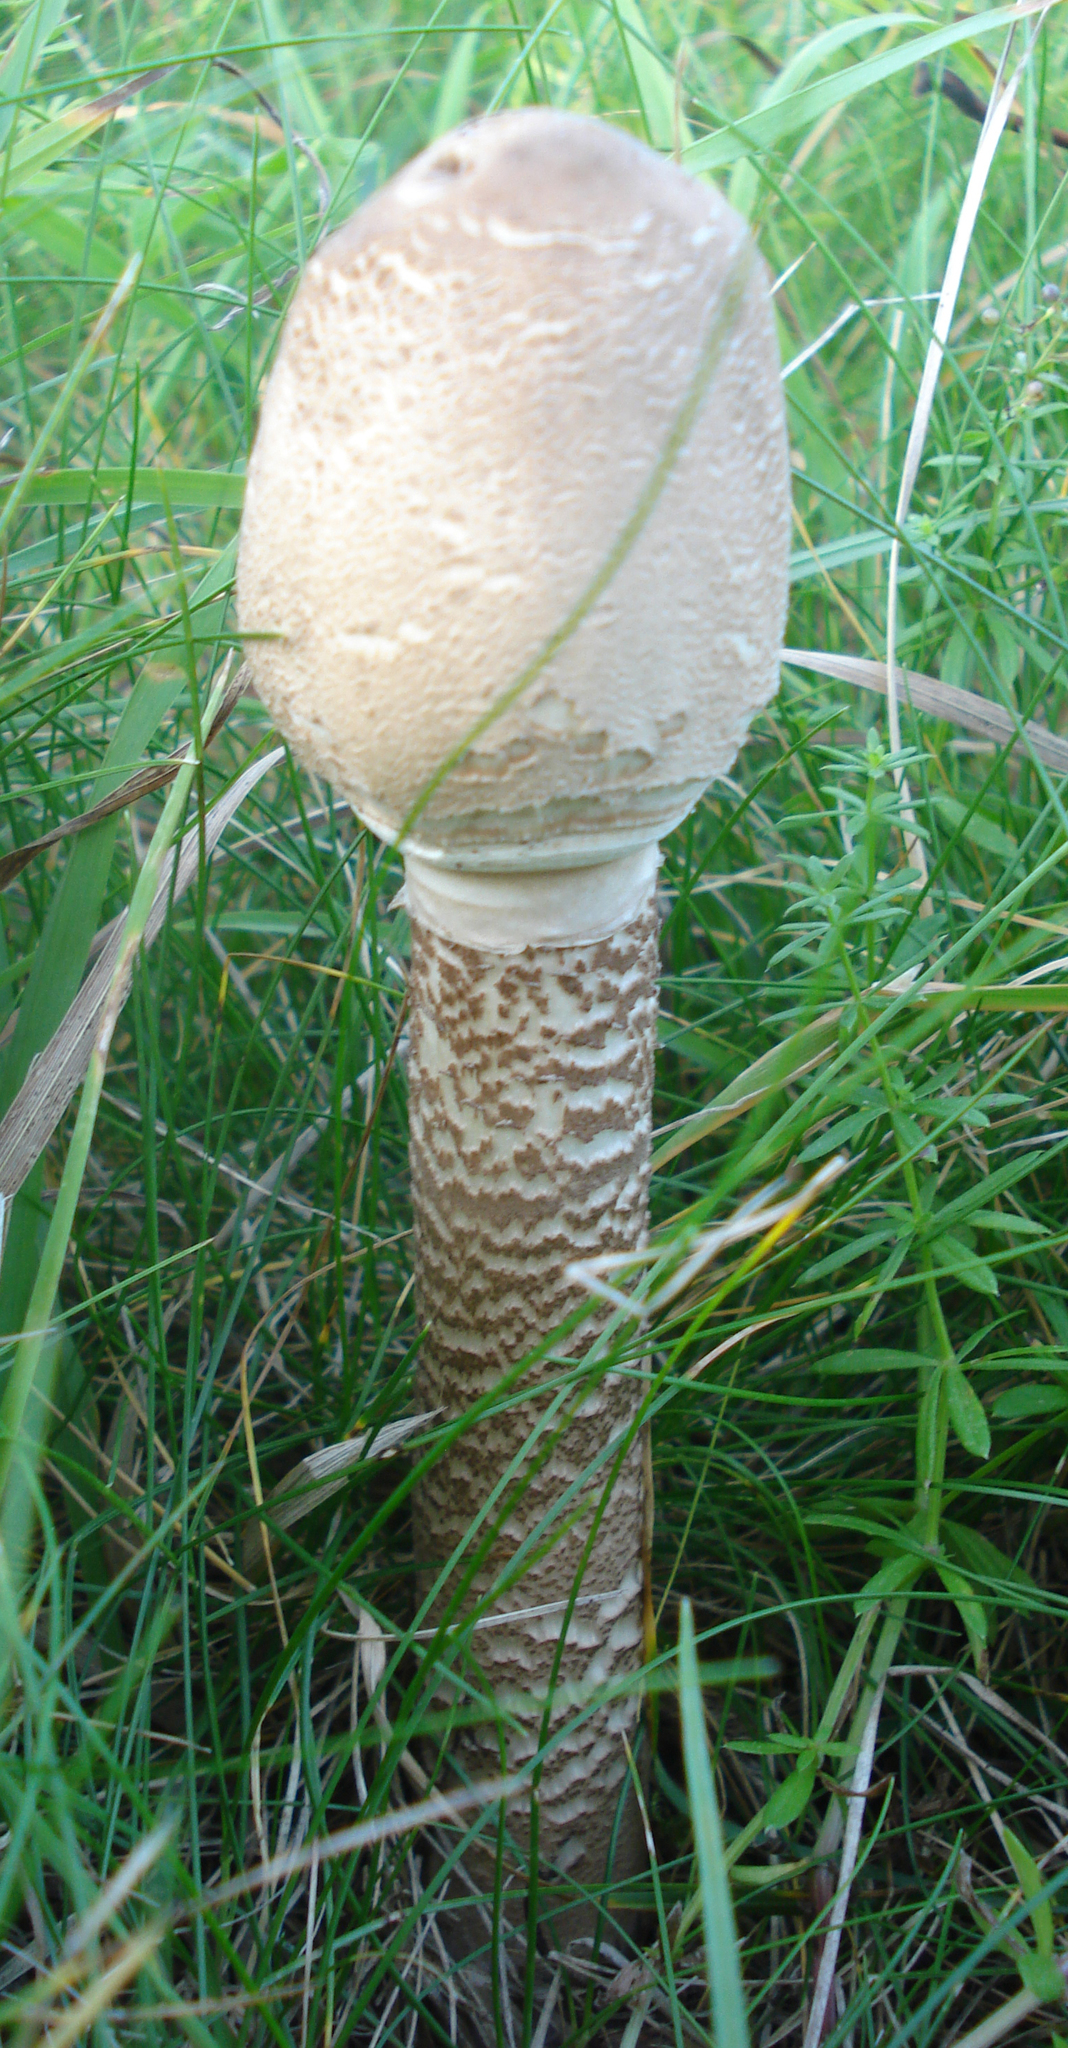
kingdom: Fungi
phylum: Basidiomycota
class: Agaricomycetes
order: Agaricales
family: Agaricaceae
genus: Macrolepiota
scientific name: Macrolepiota procera
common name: Parasol
